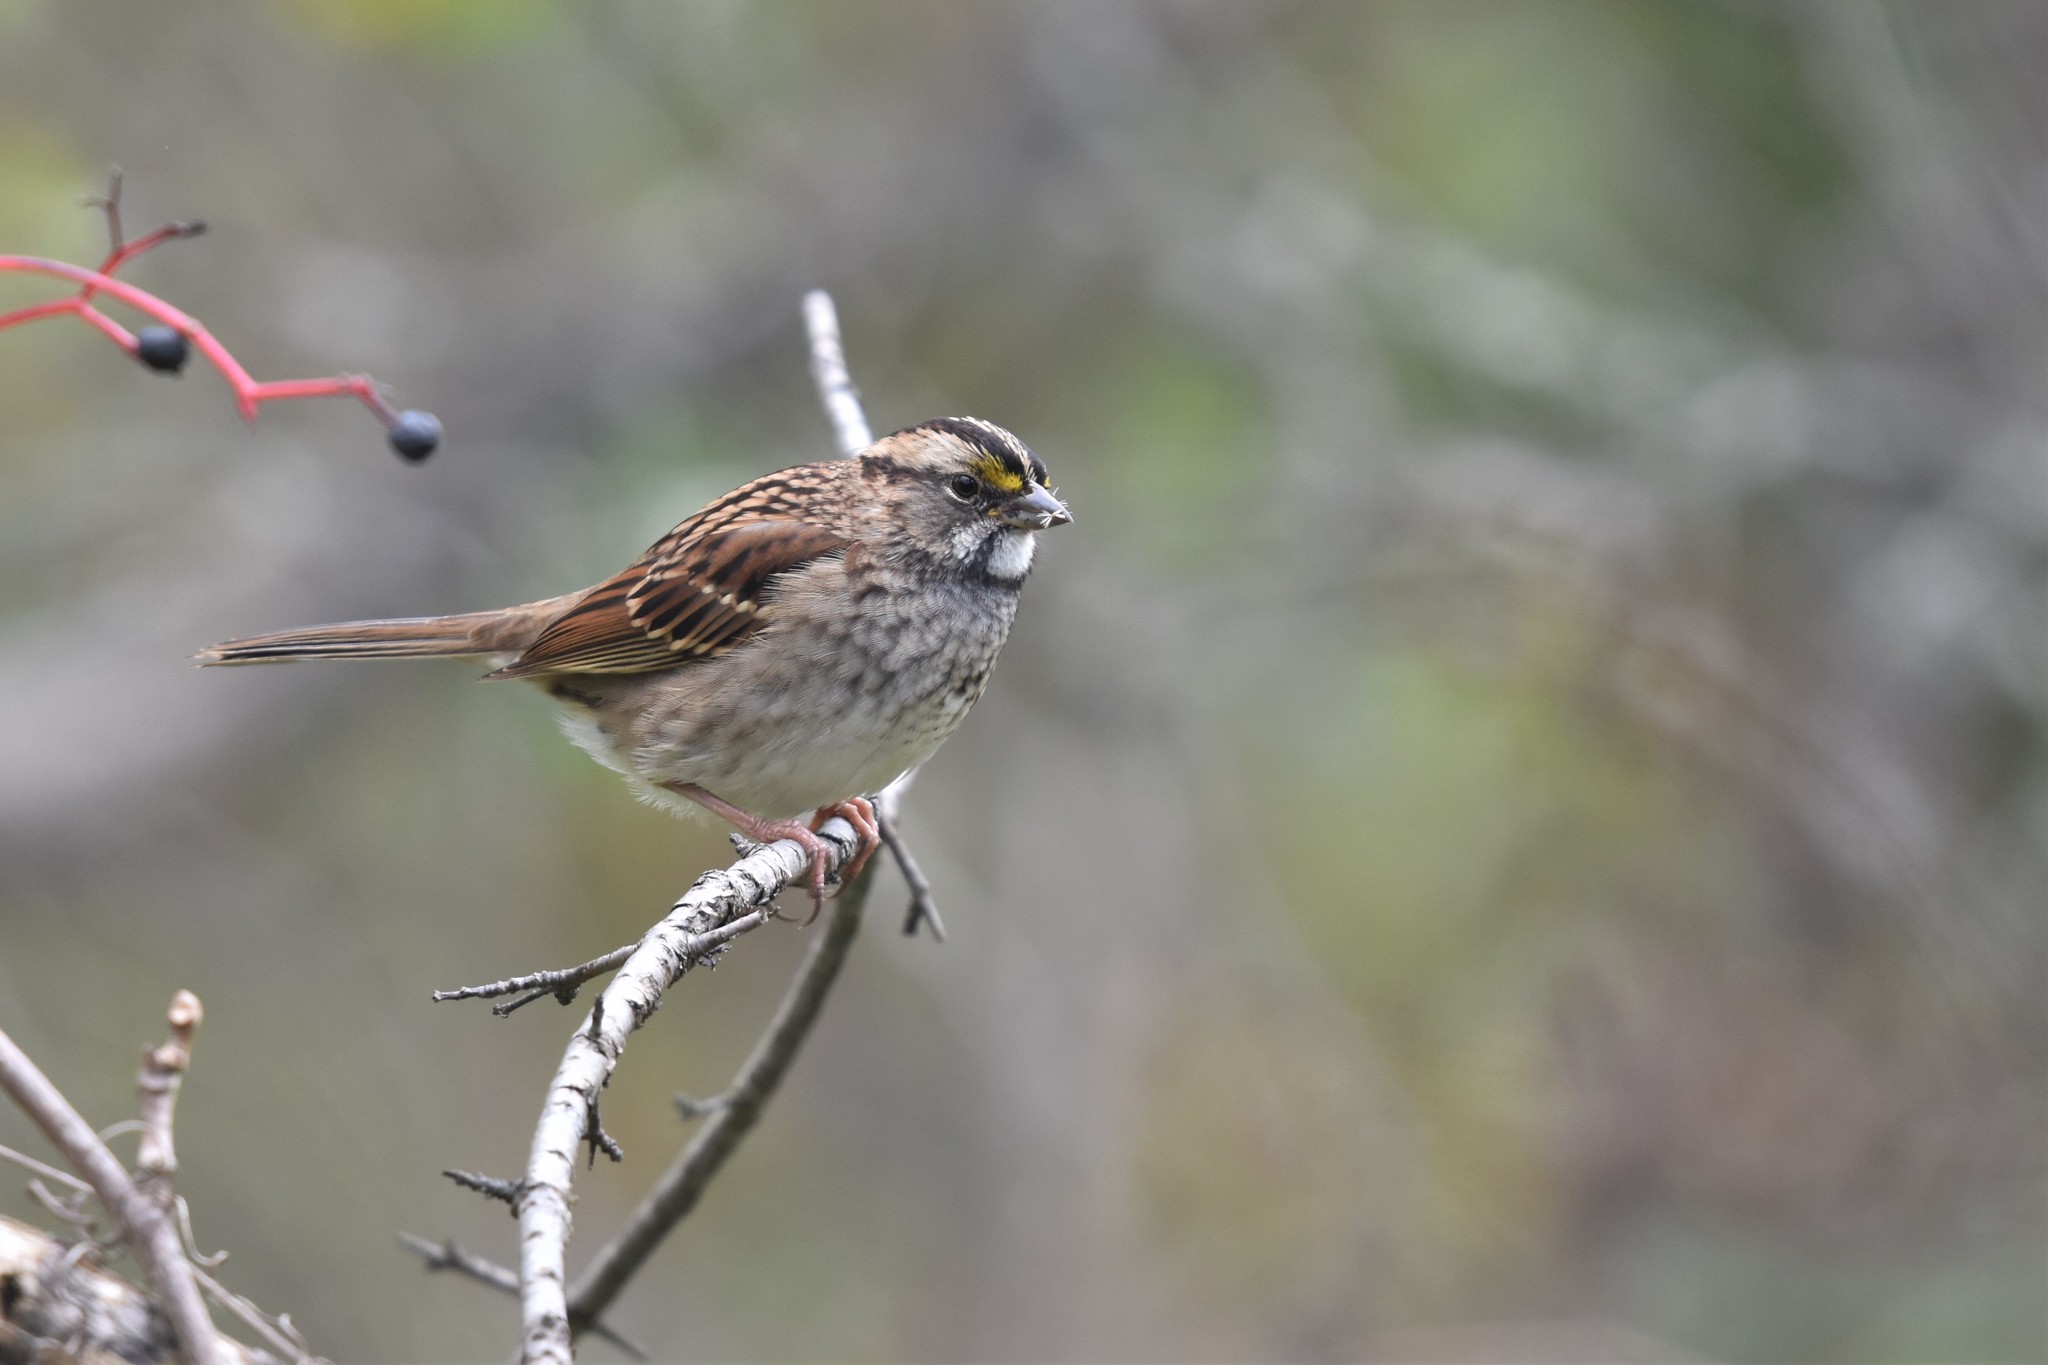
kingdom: Animalia
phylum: Chordata
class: Aves
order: Passeriformes
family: Passerellidae
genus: Zonotrichia
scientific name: Zonotrichia albicollis
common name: White-throated sparrow
